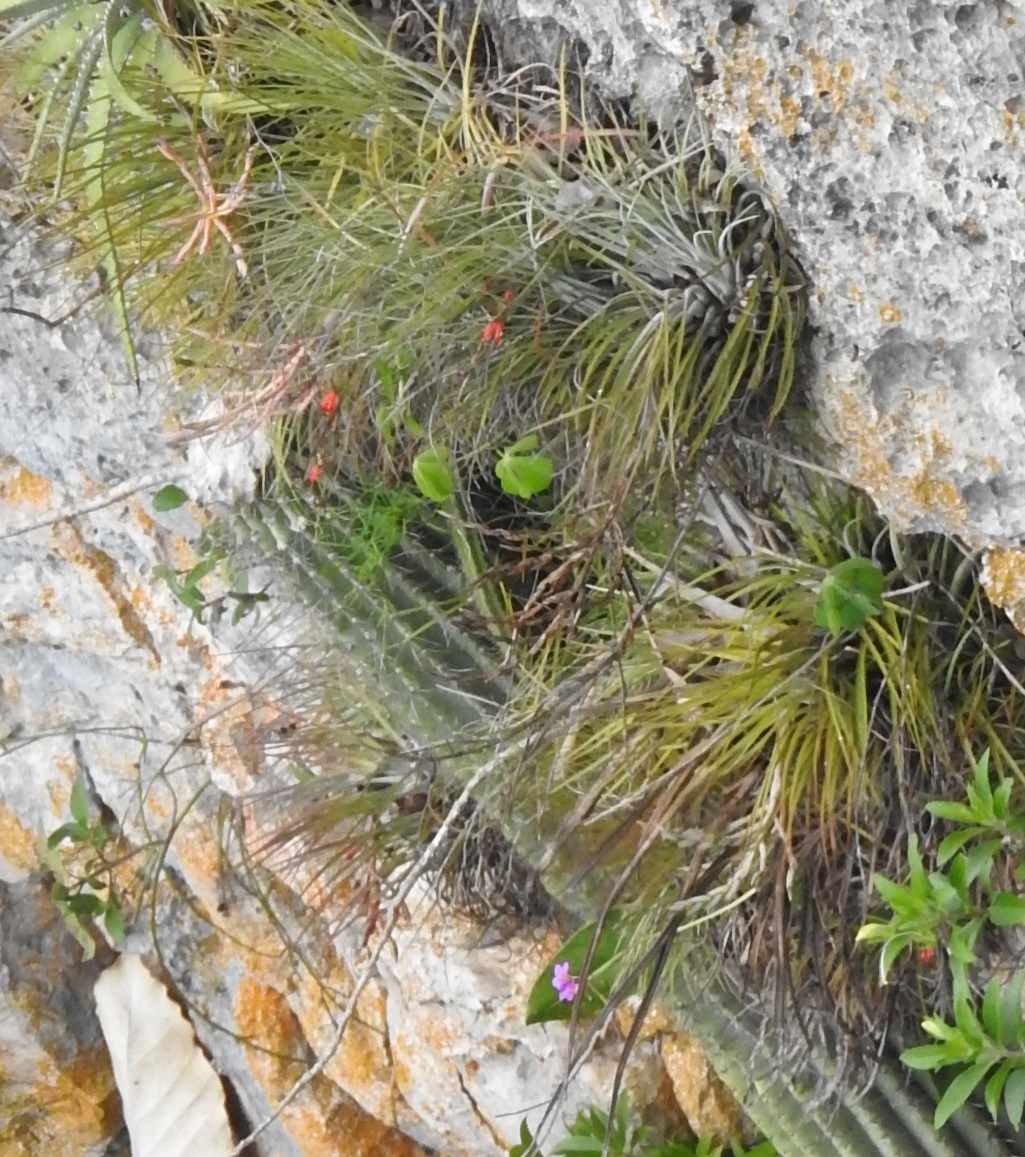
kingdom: Plantae
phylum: Tracheophyta
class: Liliopsida
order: Poales
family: Bromeliaceae
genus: Tillandsia
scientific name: Tillandsia fasciculata
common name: Giant airplant
